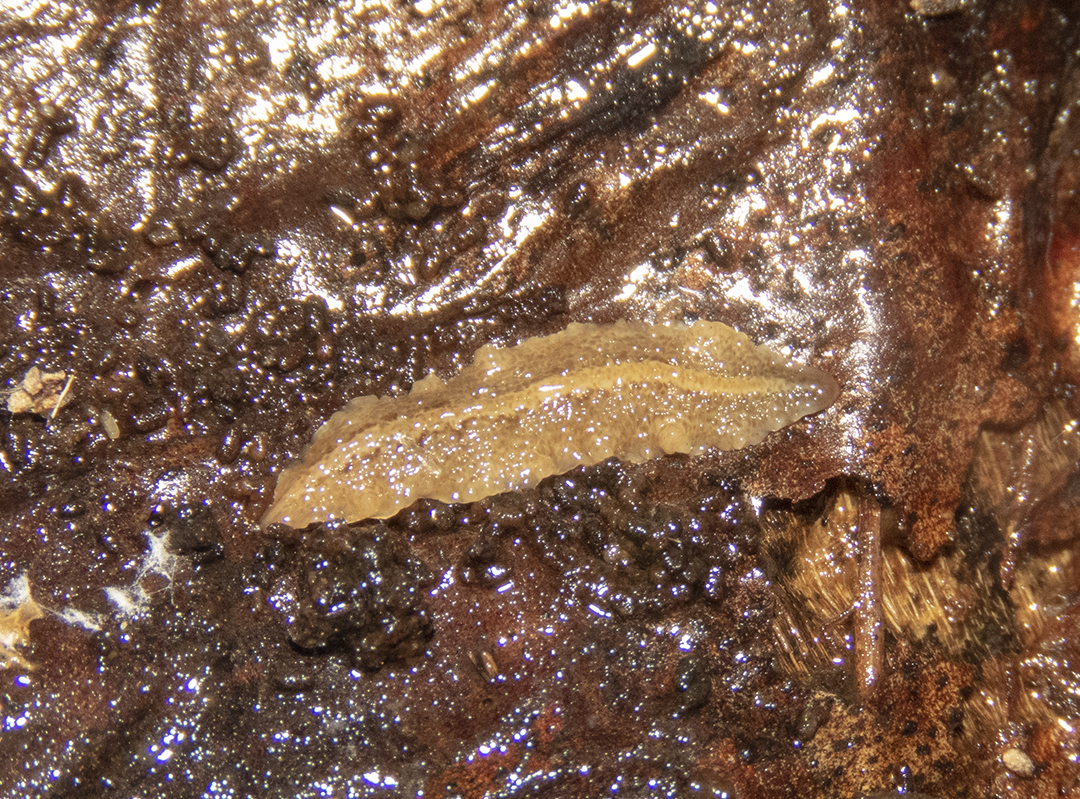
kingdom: Animalia
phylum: Platyhelminthes
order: Tricladida
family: Geoplanidae
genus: Newzealandia
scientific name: Newzealandia graffii
